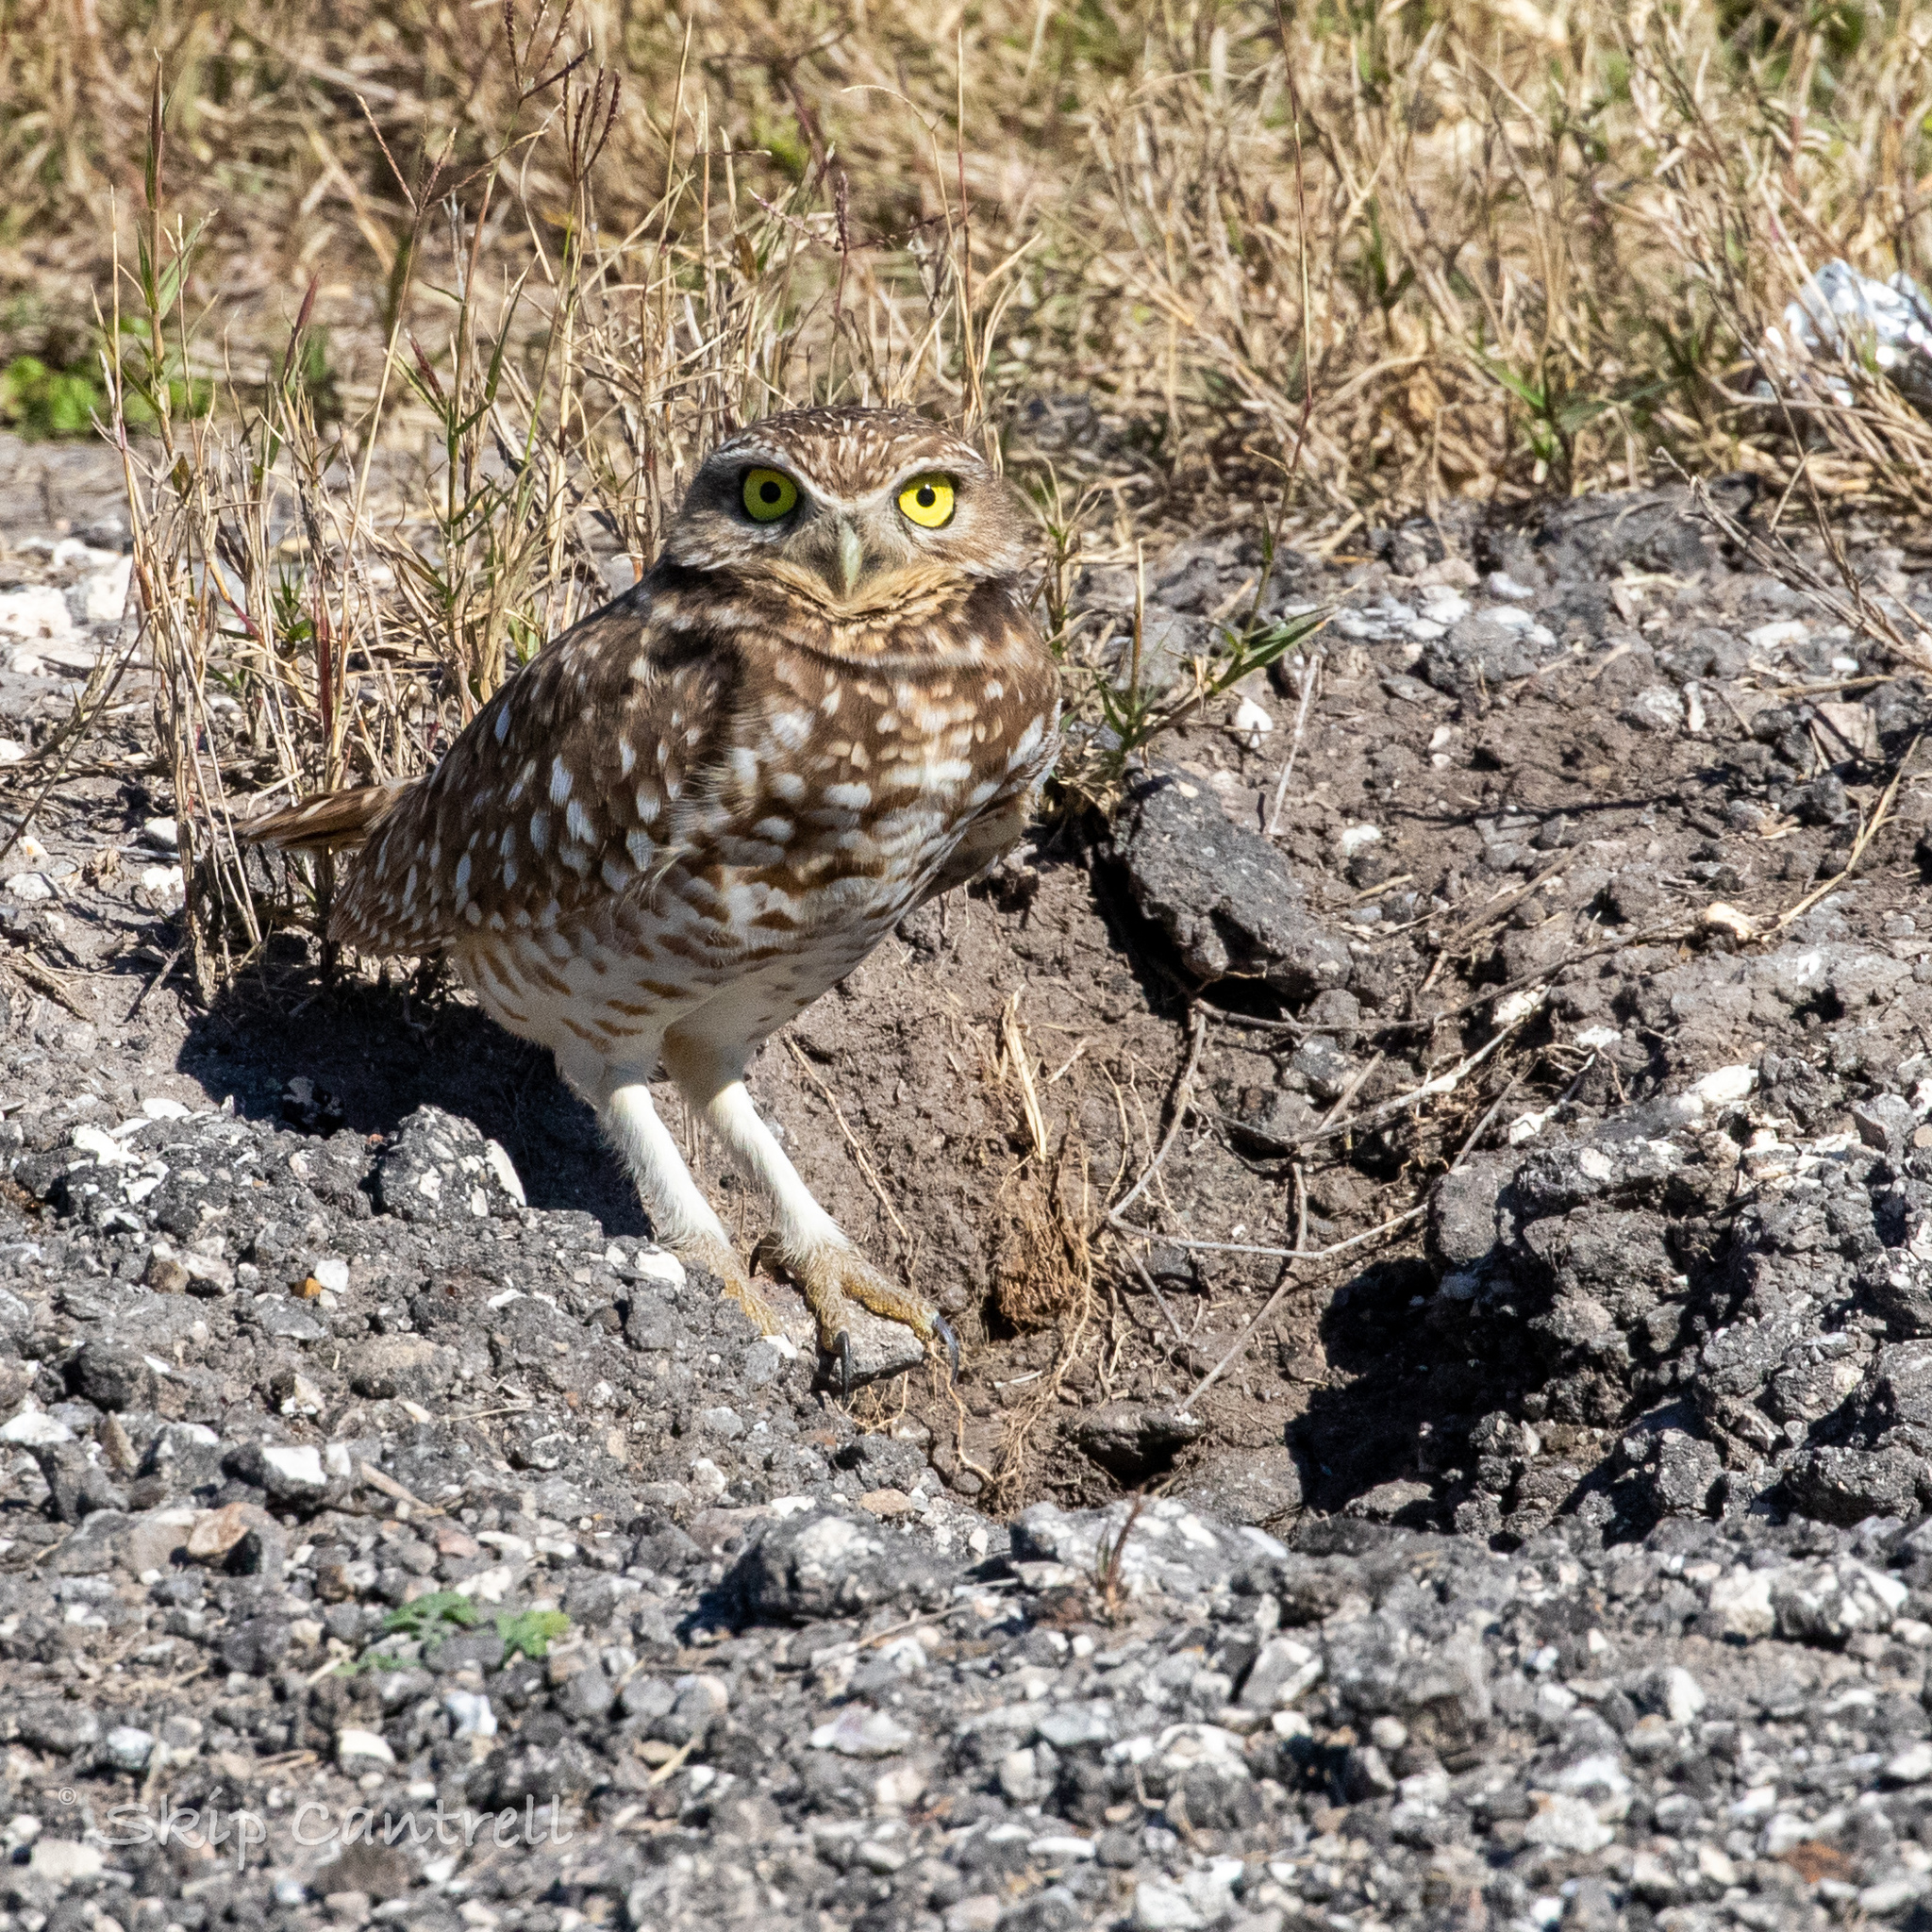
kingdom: Animalia
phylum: Chordata
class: Aves
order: Strigiformes
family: Strigidae
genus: Athene
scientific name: Athene cunicularia
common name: Burrowing owl
